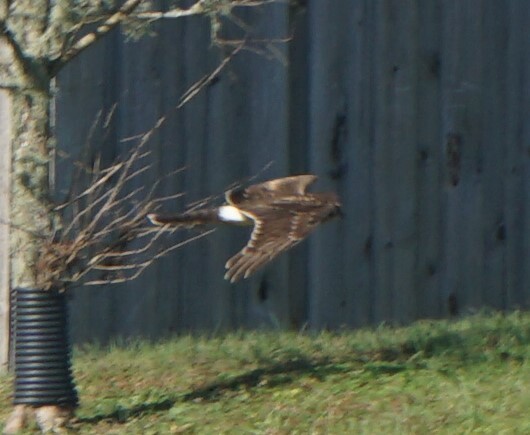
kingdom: Animalia
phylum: Chordata
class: Aves
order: Accipitriformes
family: Accipitridae
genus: Circus
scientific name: Circus cyaneus
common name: Hen harrier
